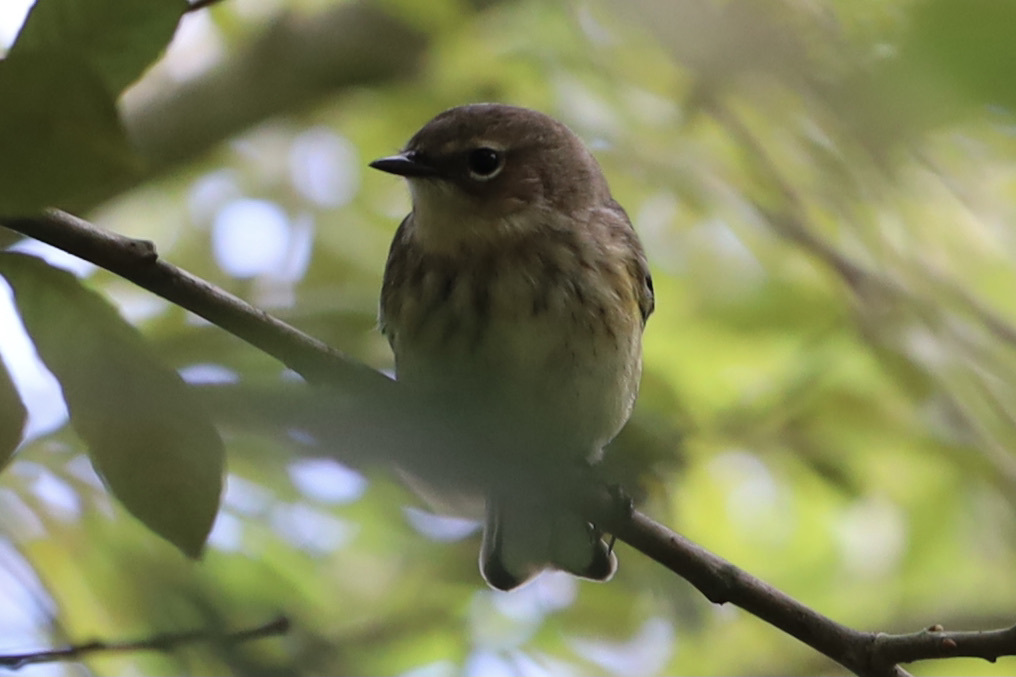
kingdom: Animalia
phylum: Chordata
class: Aves
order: Passeriformes
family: Parulidae
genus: Setophaga
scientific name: Setophaga coronata
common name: Myrtle warbler
